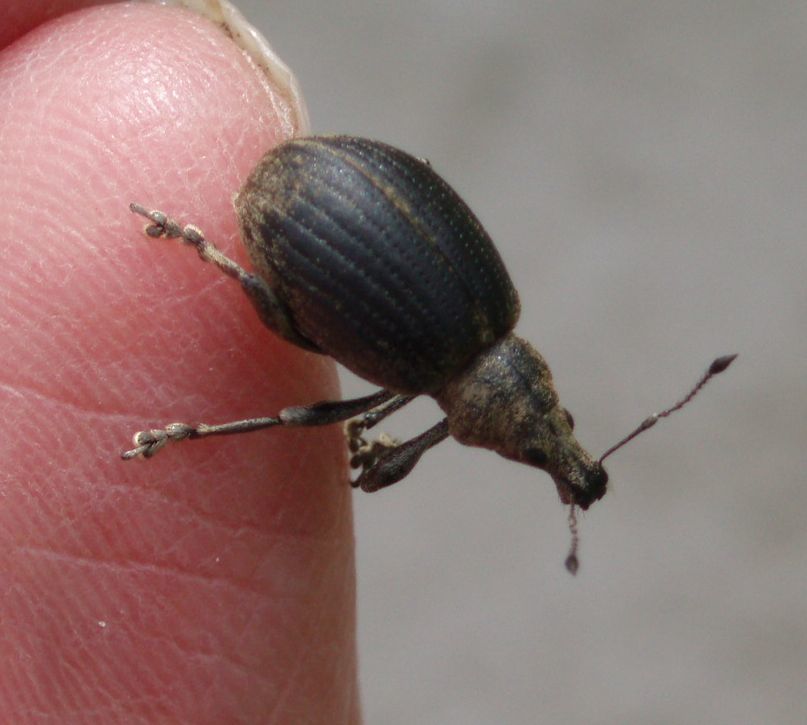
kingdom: Animalia
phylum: Arthropoda
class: Insecta
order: Coleoptera
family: Curculionidae
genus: Liophloeus
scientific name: Liophloeus tessulatus
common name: Weevil
